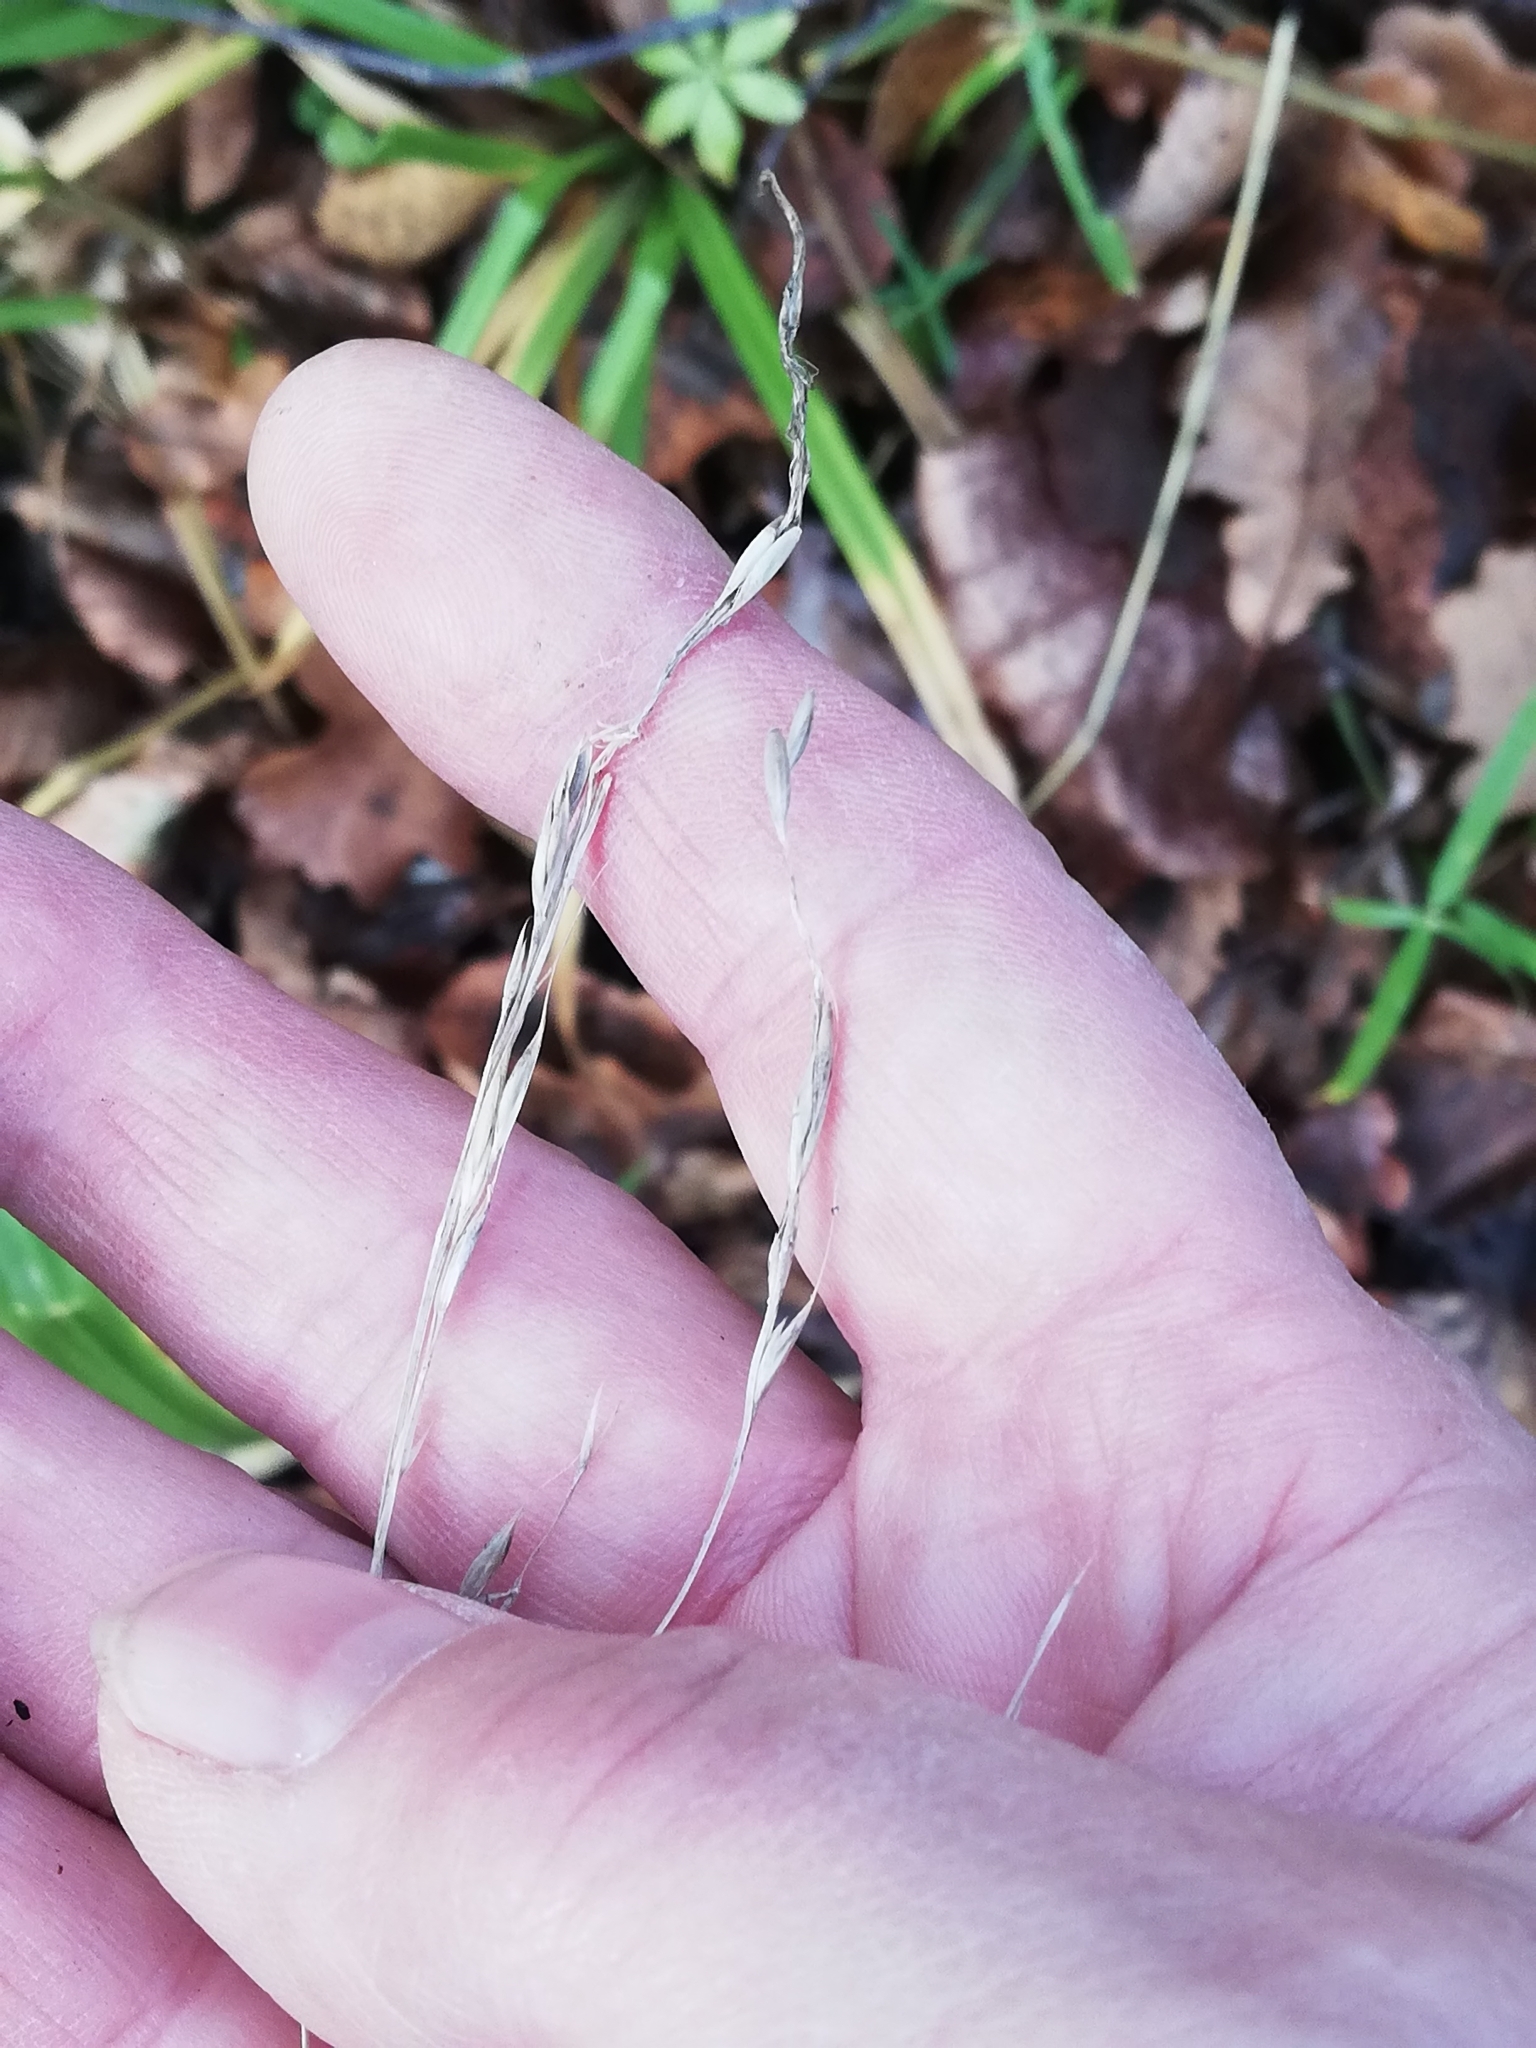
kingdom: Plantae
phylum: Tracheophyta
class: Liliopsida
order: Poales
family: Poaceae
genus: Lolium
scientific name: Lolium giganteum
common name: Giant fescue
